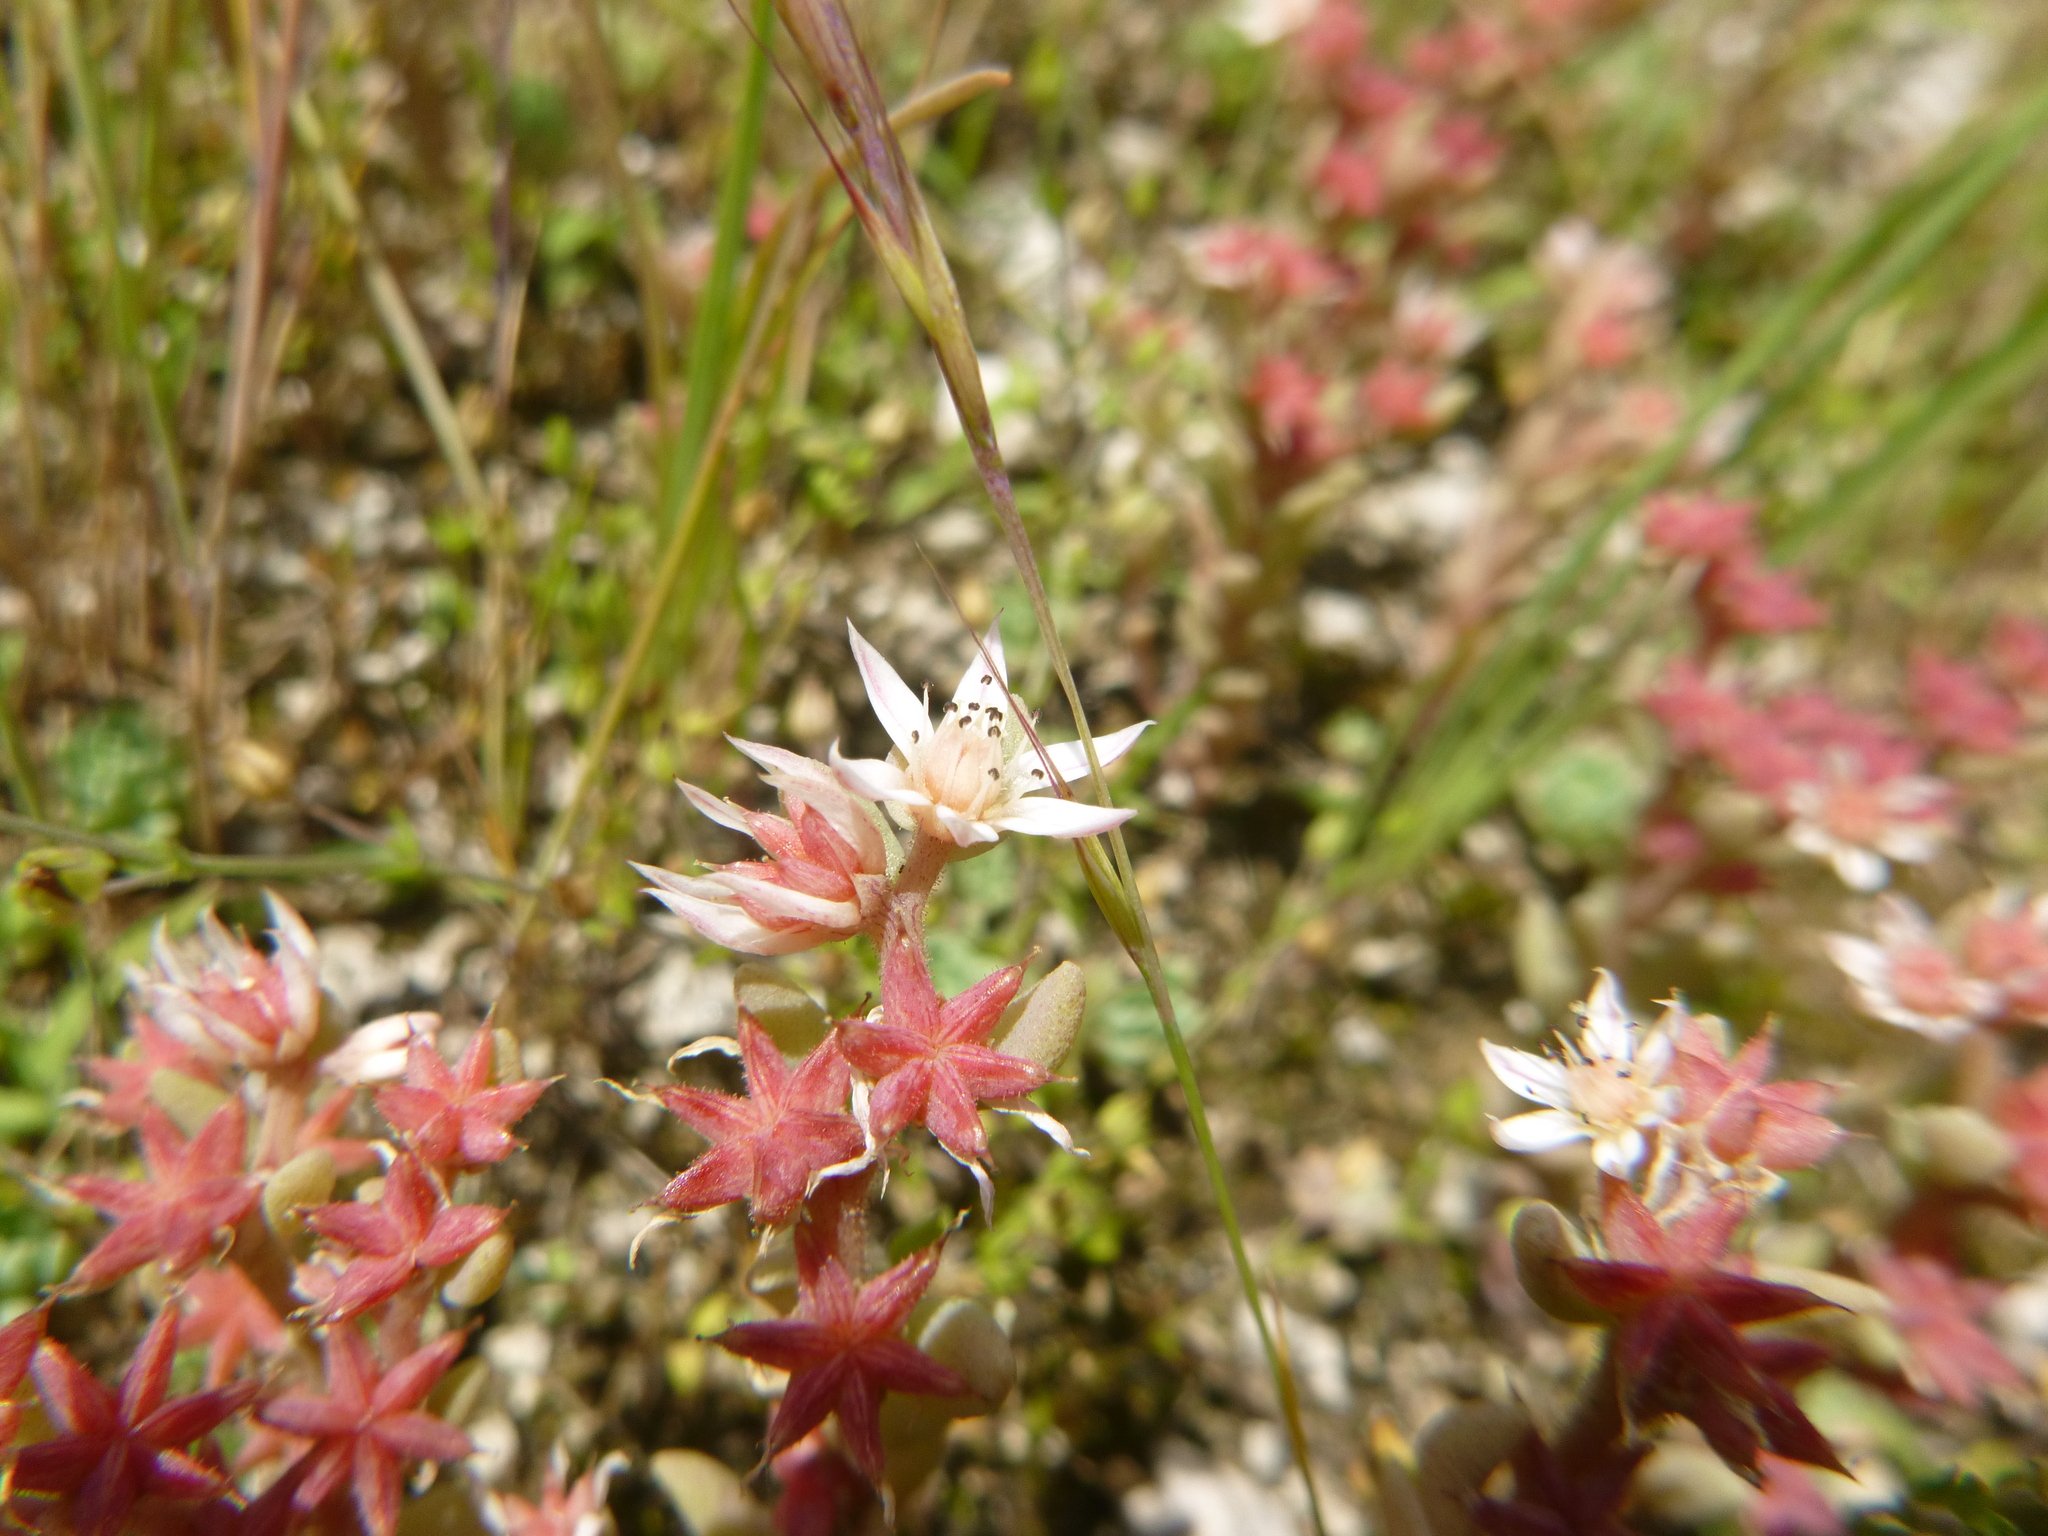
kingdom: Plantae
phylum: Tracheophyta
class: Magnoliopsida
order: Saxifragales
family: Crassulaceae
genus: Sedum
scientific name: Sedum hispanicum
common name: Spanish stonecrop
